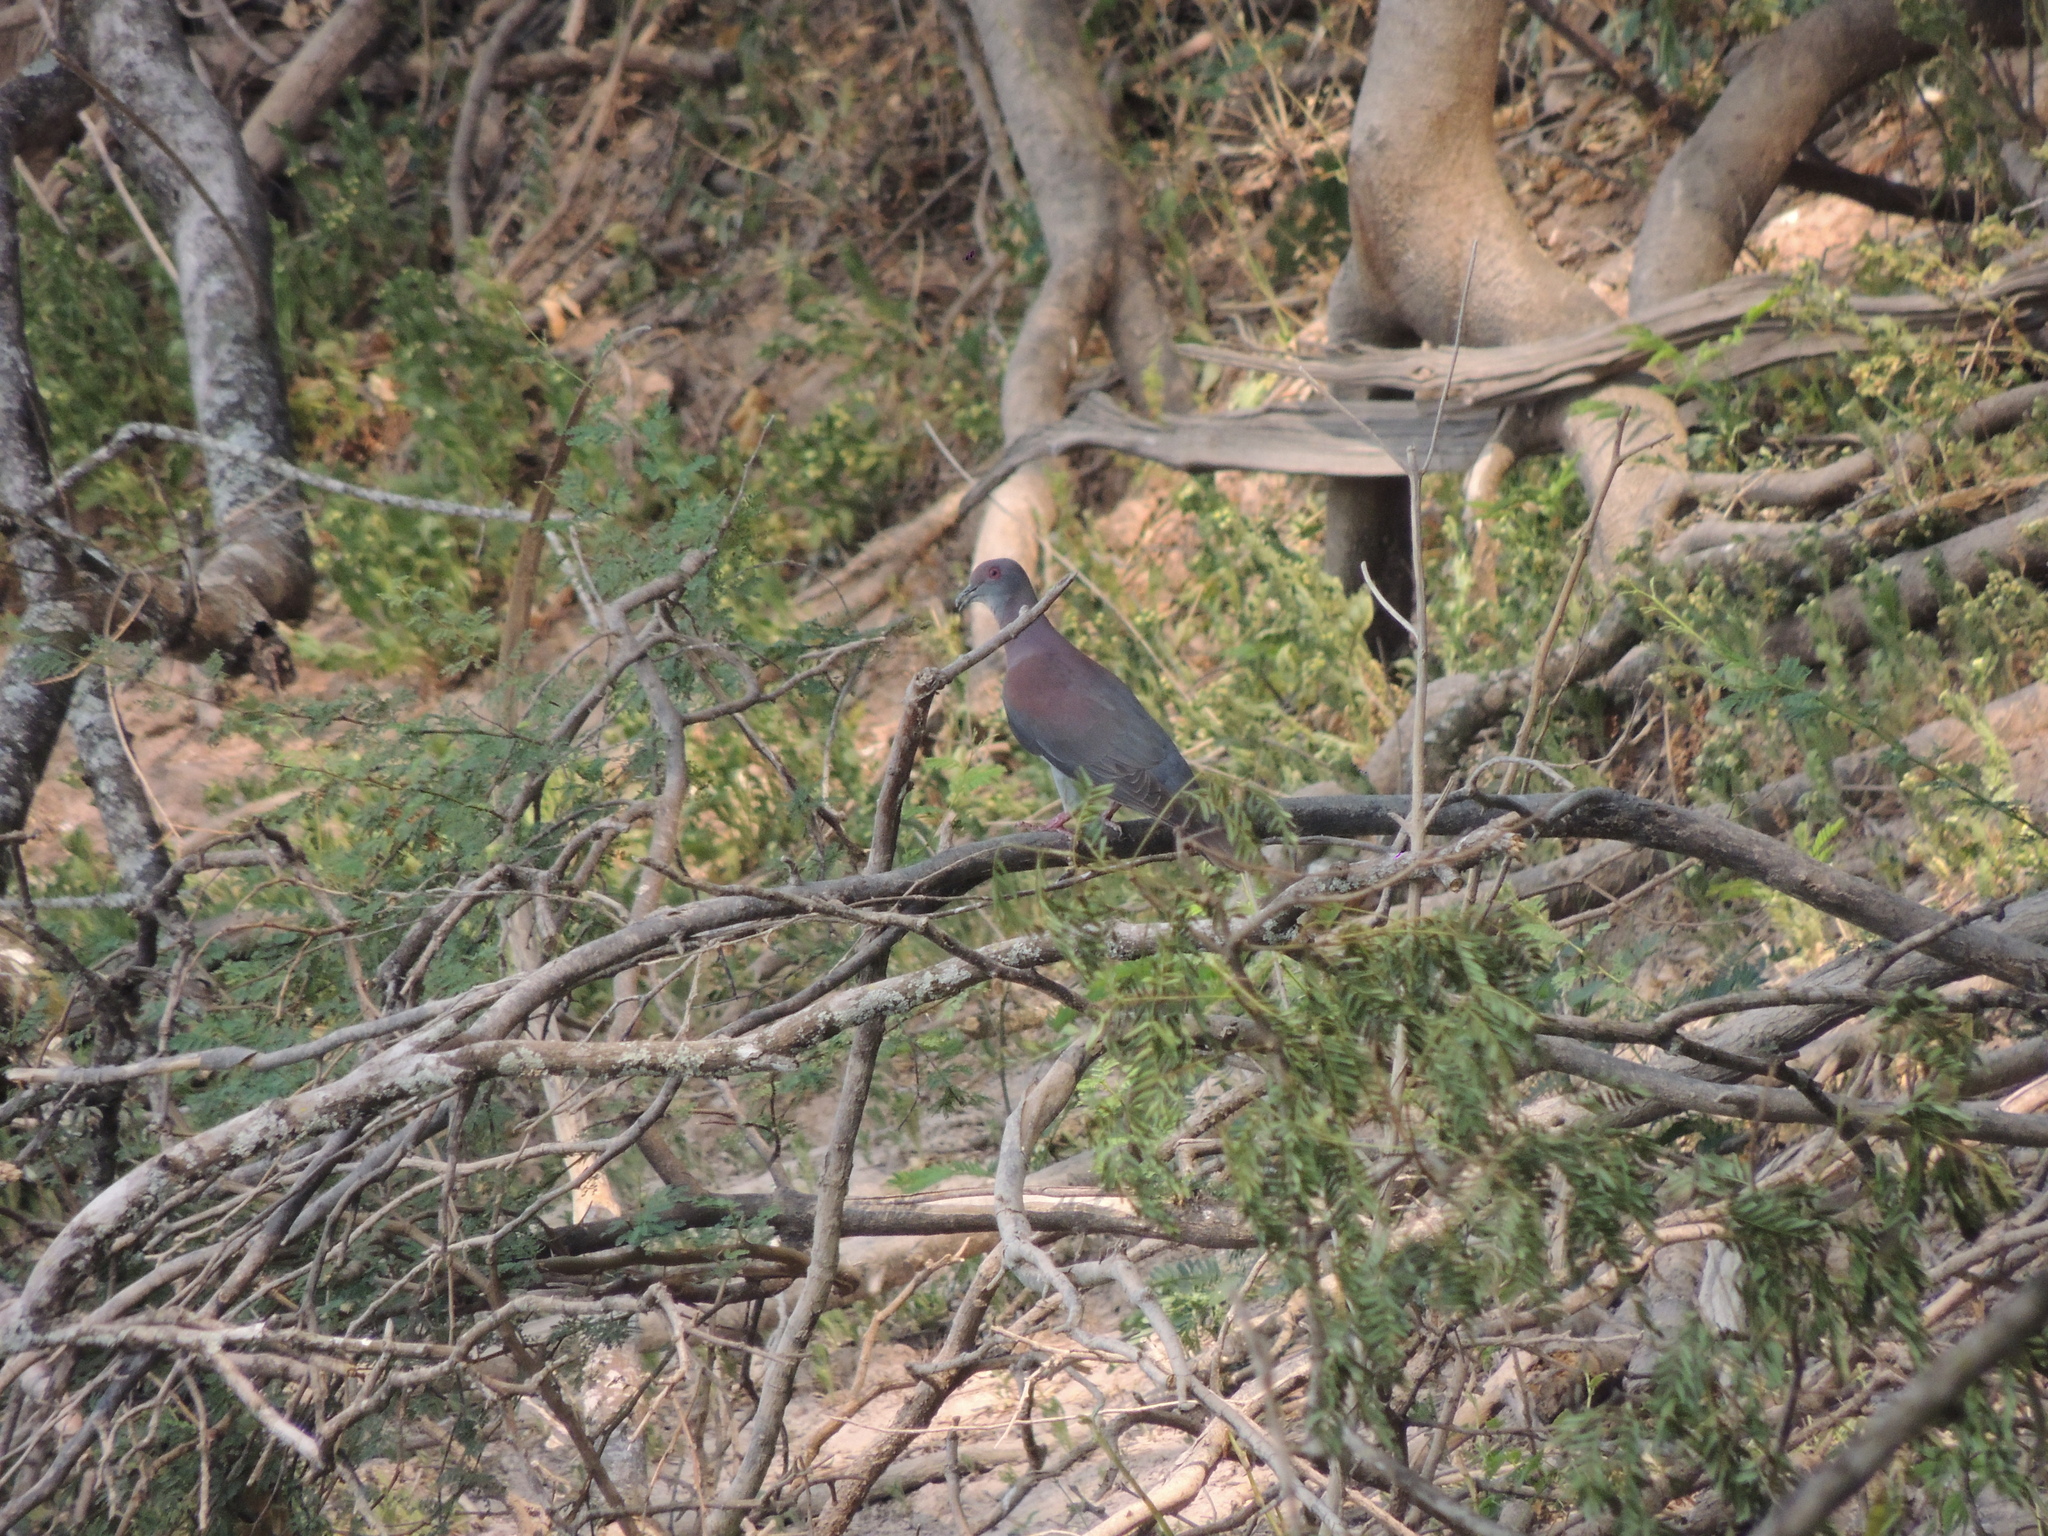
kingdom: Animalia
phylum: Chordata
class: Aves
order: Columbiformes
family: Columbidae
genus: Patagioenas
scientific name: Patagioenas cayennensis
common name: Pale-vented pigeon
